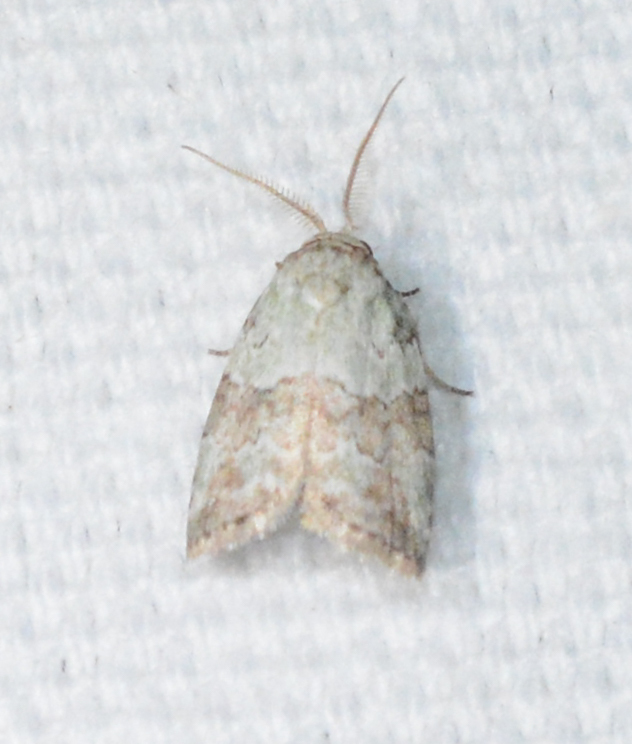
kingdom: Animalia
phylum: Arthropoda
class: Insecta
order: Lepidoptera
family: Nolidae
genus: Afrida
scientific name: Afrida ydatodes
